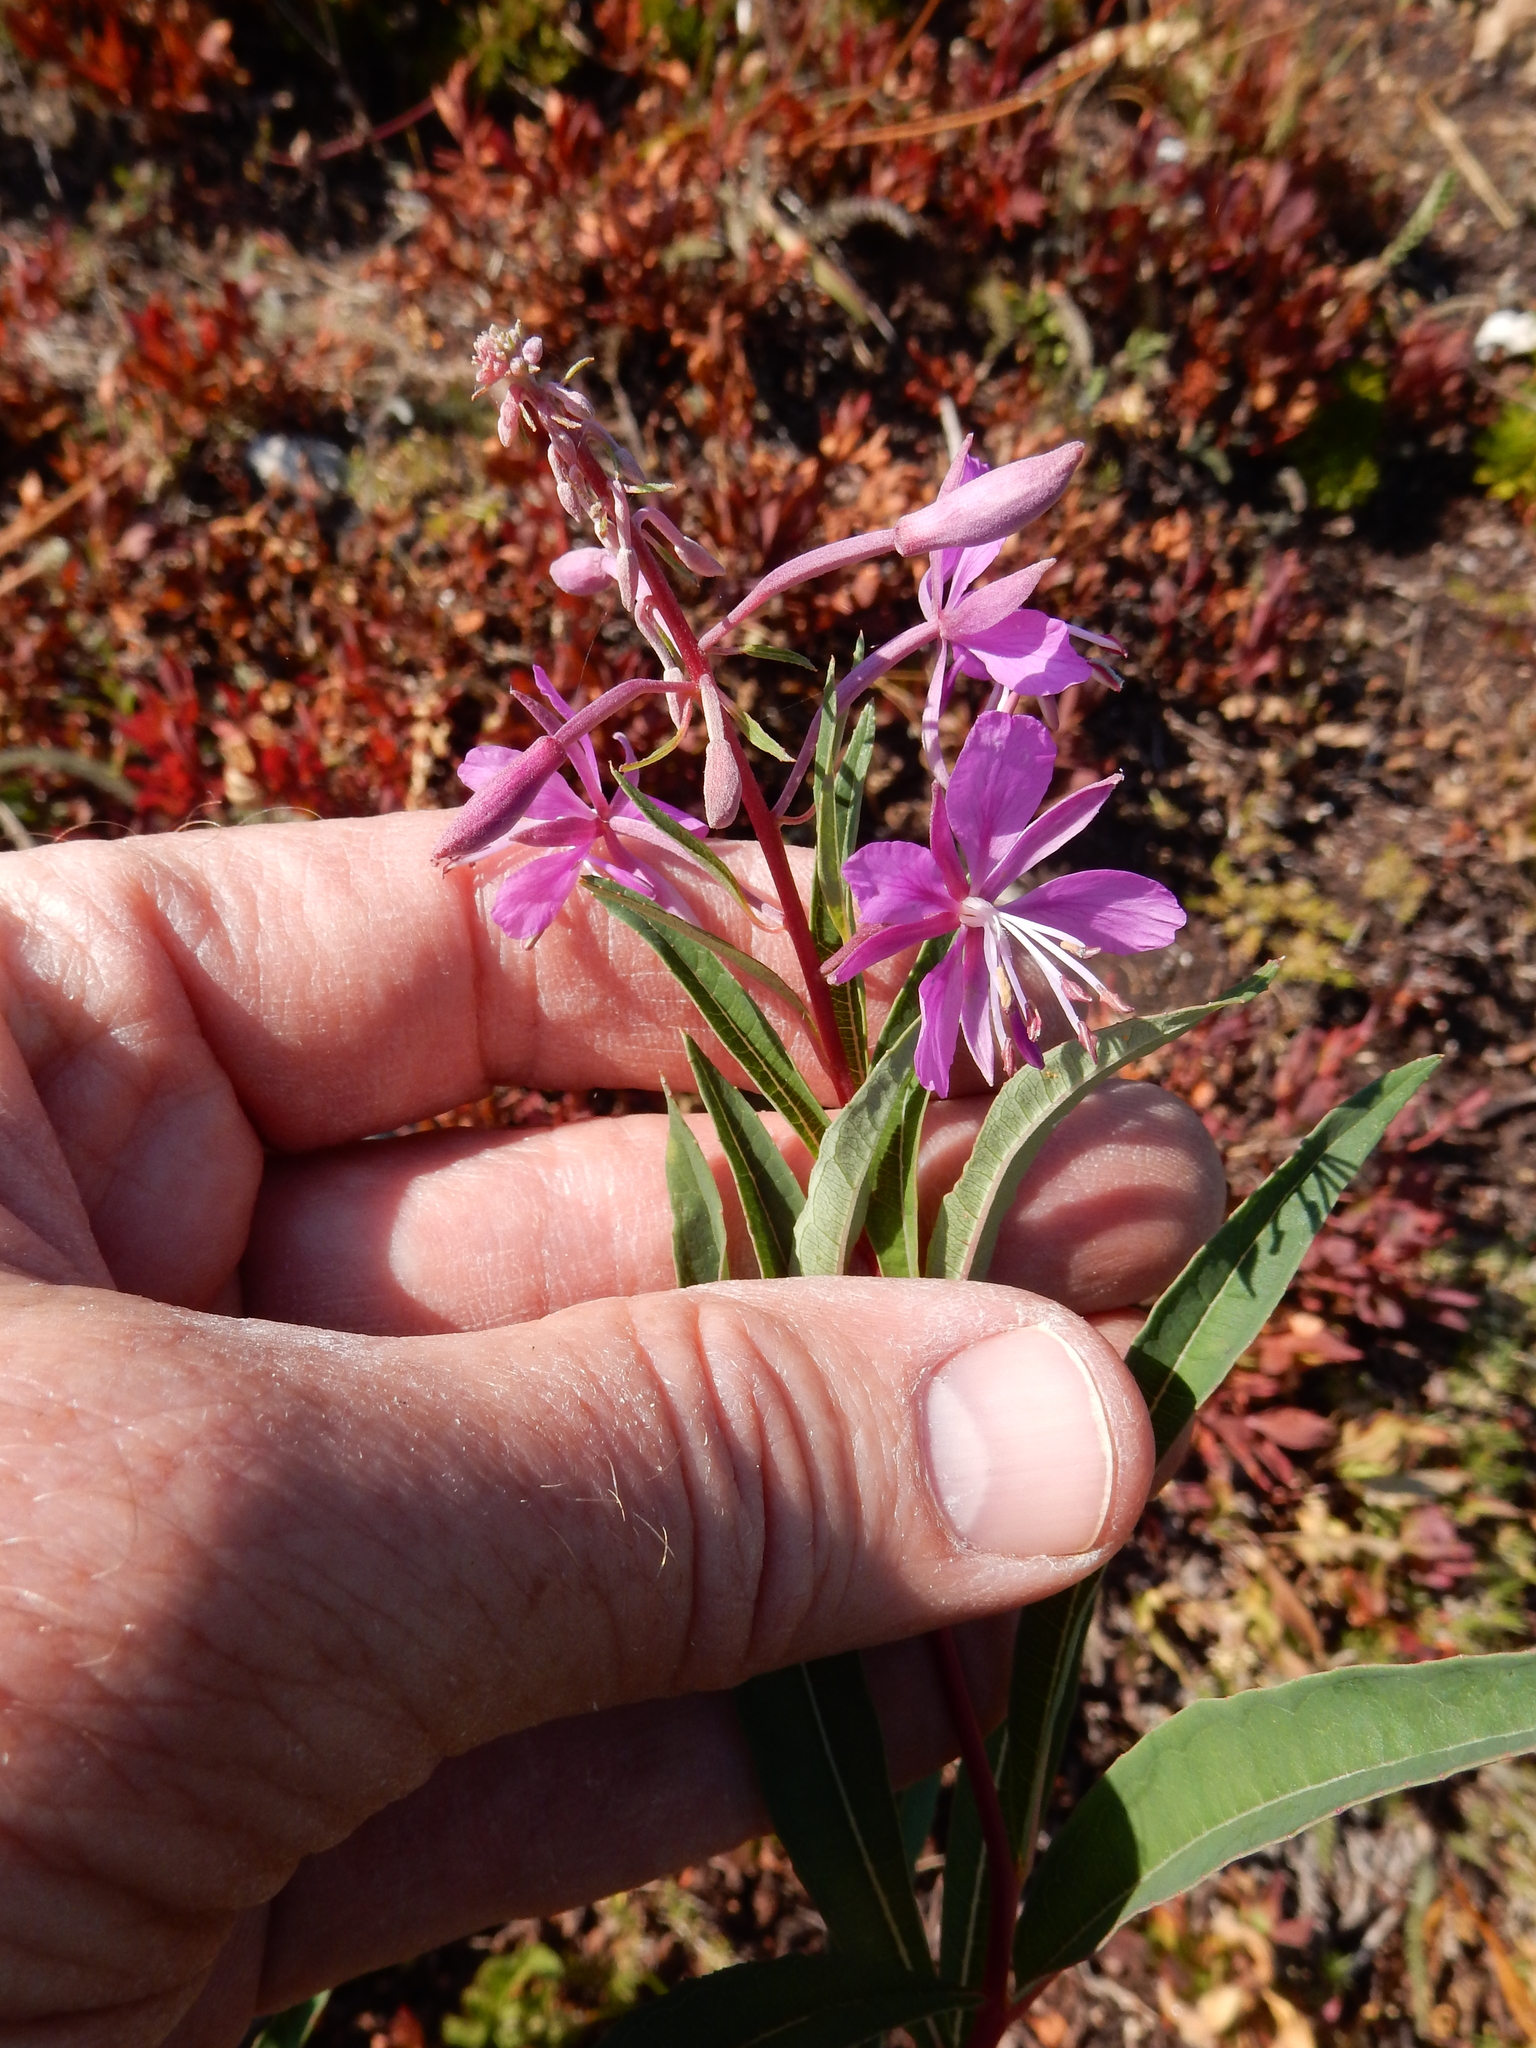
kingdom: Plantae
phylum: Tracheophyta
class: Magnoliopsida
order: Myrtales
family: Onagraceae
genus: Chamaenerion
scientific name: Chamaenerion angustifolium
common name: Fireweed
